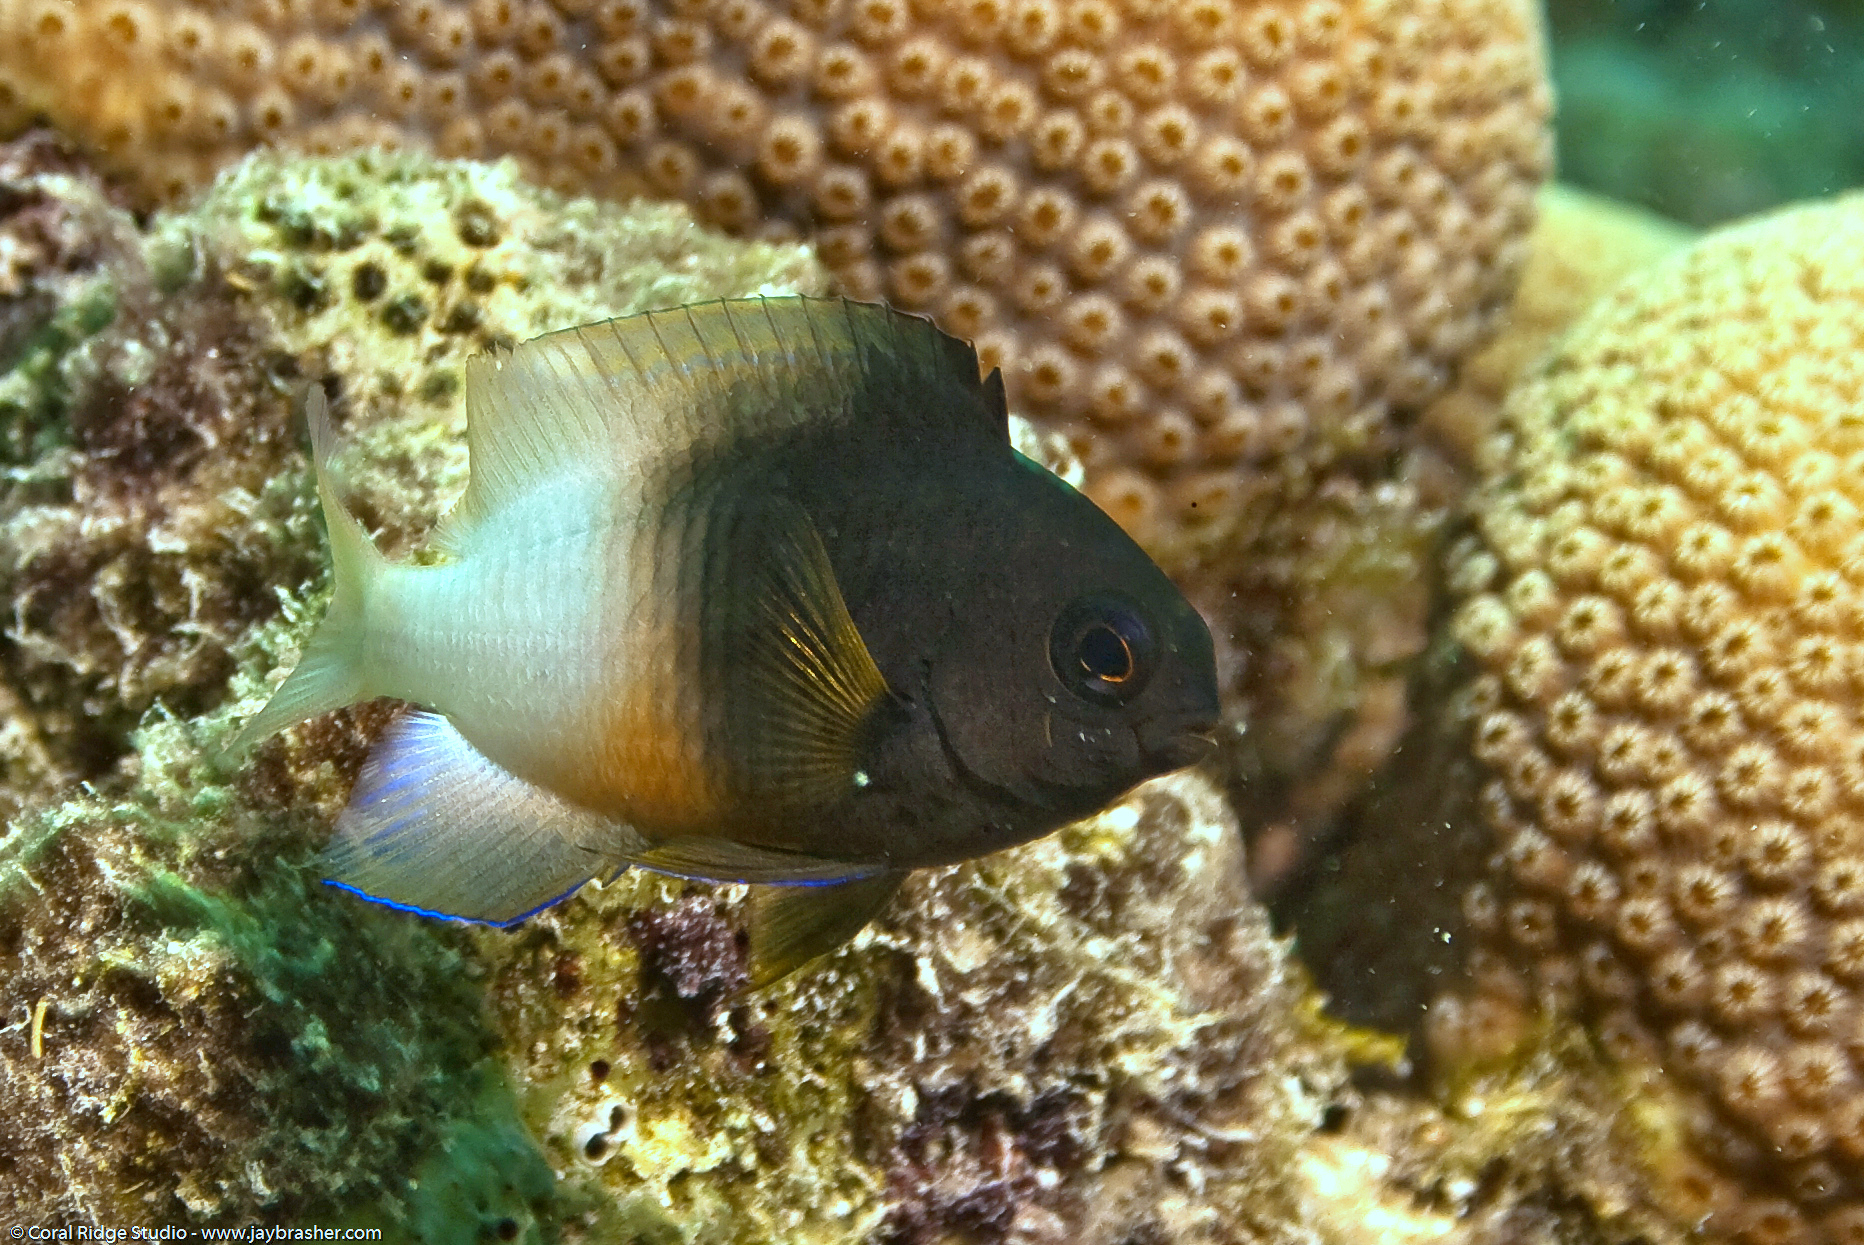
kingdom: Animalia
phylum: Chordata
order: Perciformes
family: Pomacentridae
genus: Stegastes
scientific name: Stegastes partitus
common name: Bicolor damselfish
